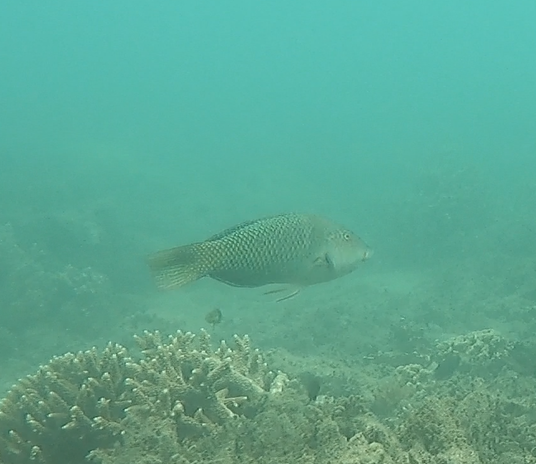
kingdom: Animalia
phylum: Chordata
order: Perciformes
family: Labridae
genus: Hemigymnus
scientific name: Hemigymnus melapterus
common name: Blackeye thicklip
